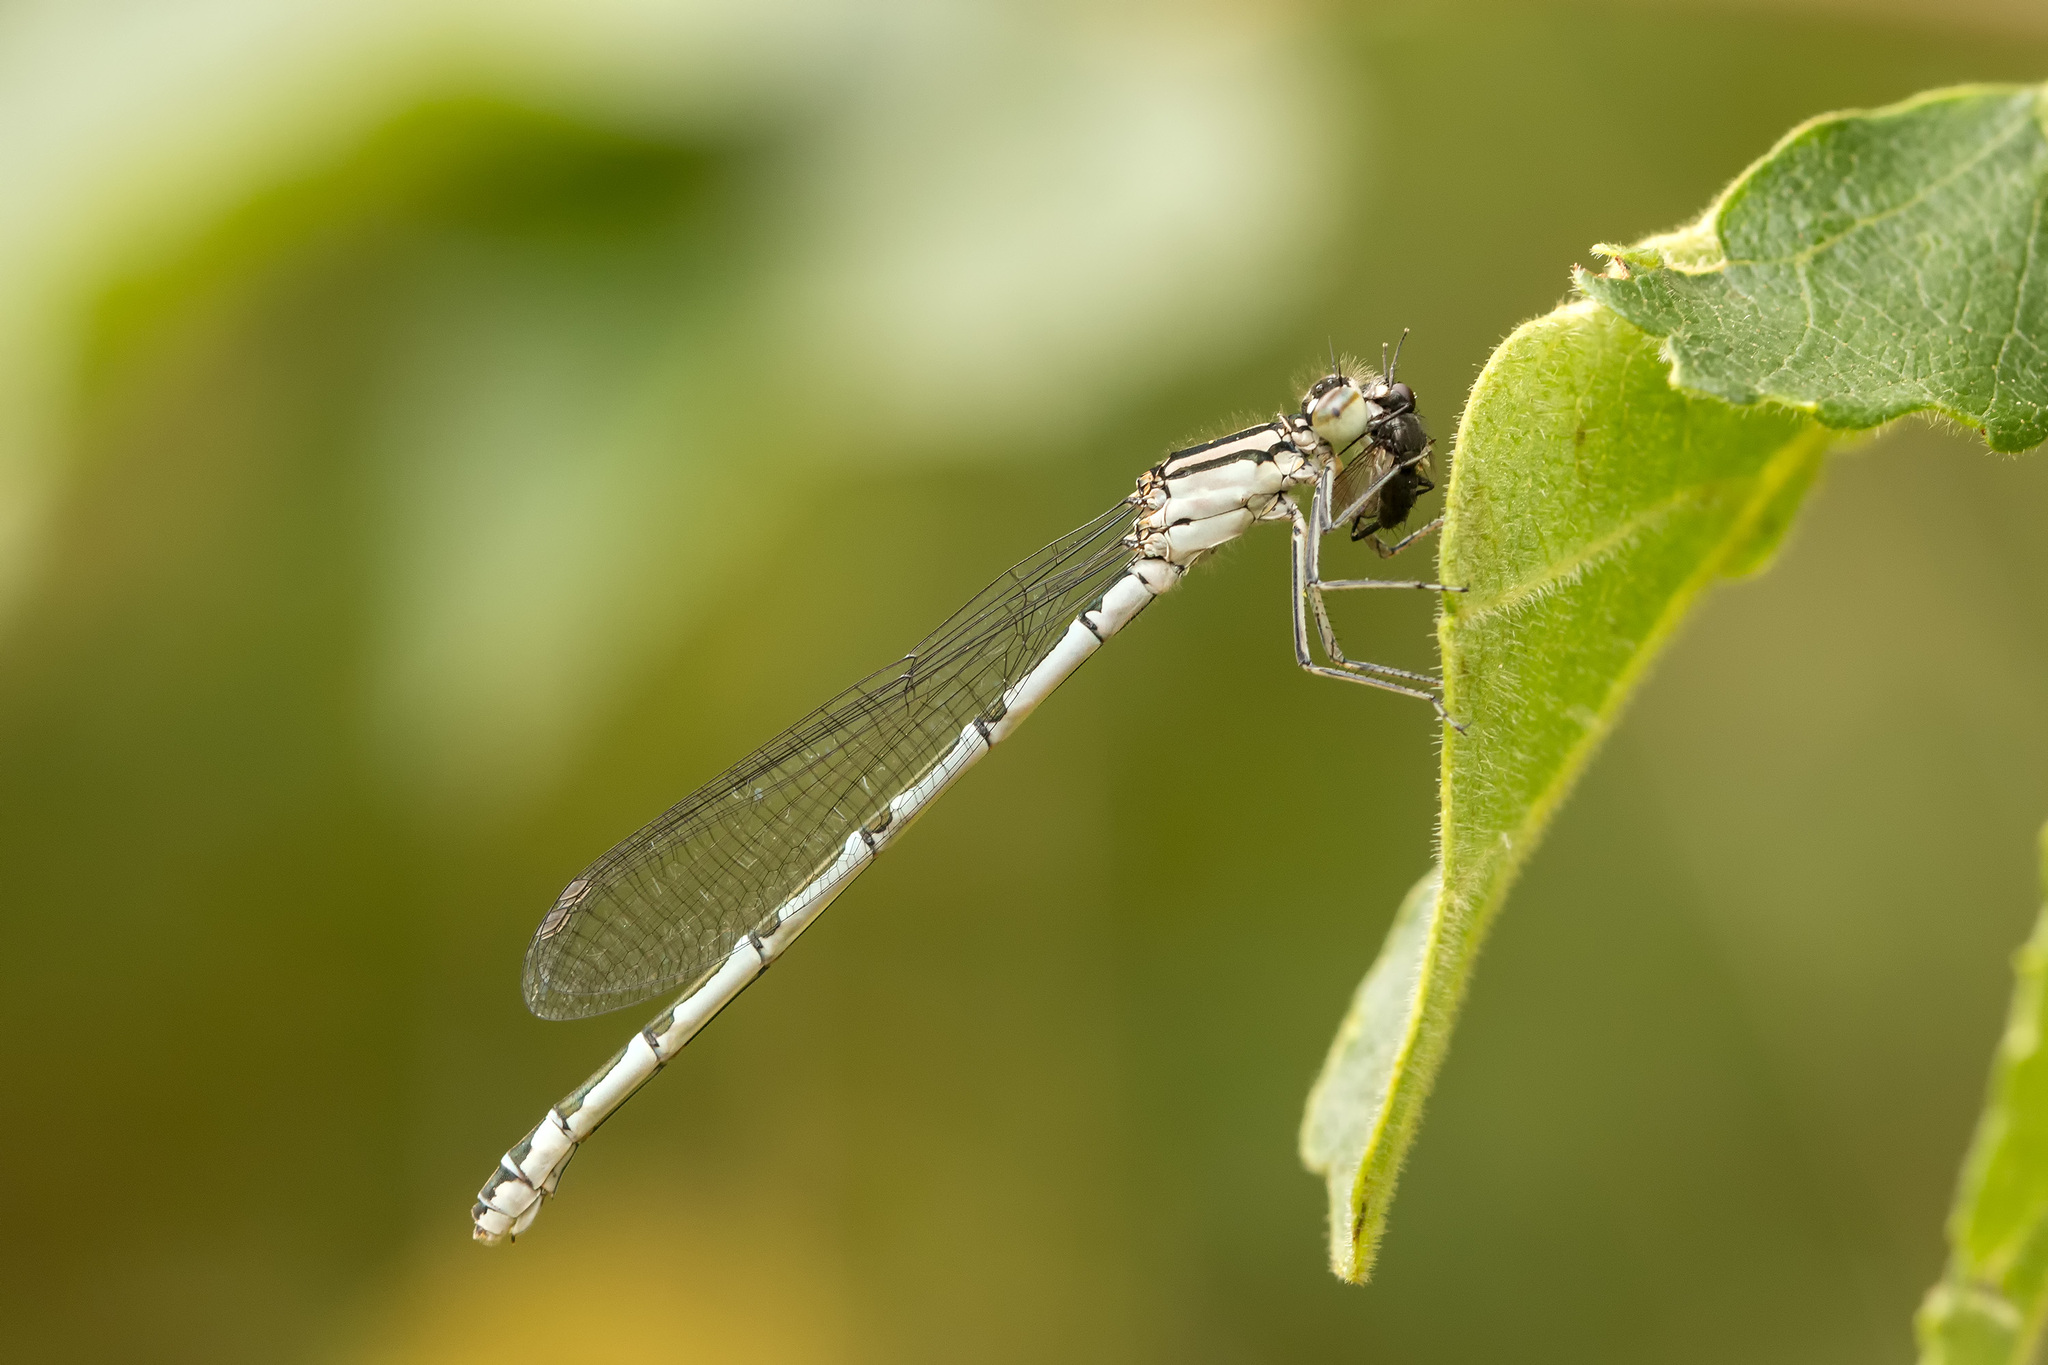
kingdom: Animalia
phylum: Arthropoda
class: Insecta
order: Odonata
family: Coenagrionidae
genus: Enallagma
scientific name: Enallagma cyathigerum
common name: Common blue damselfly
